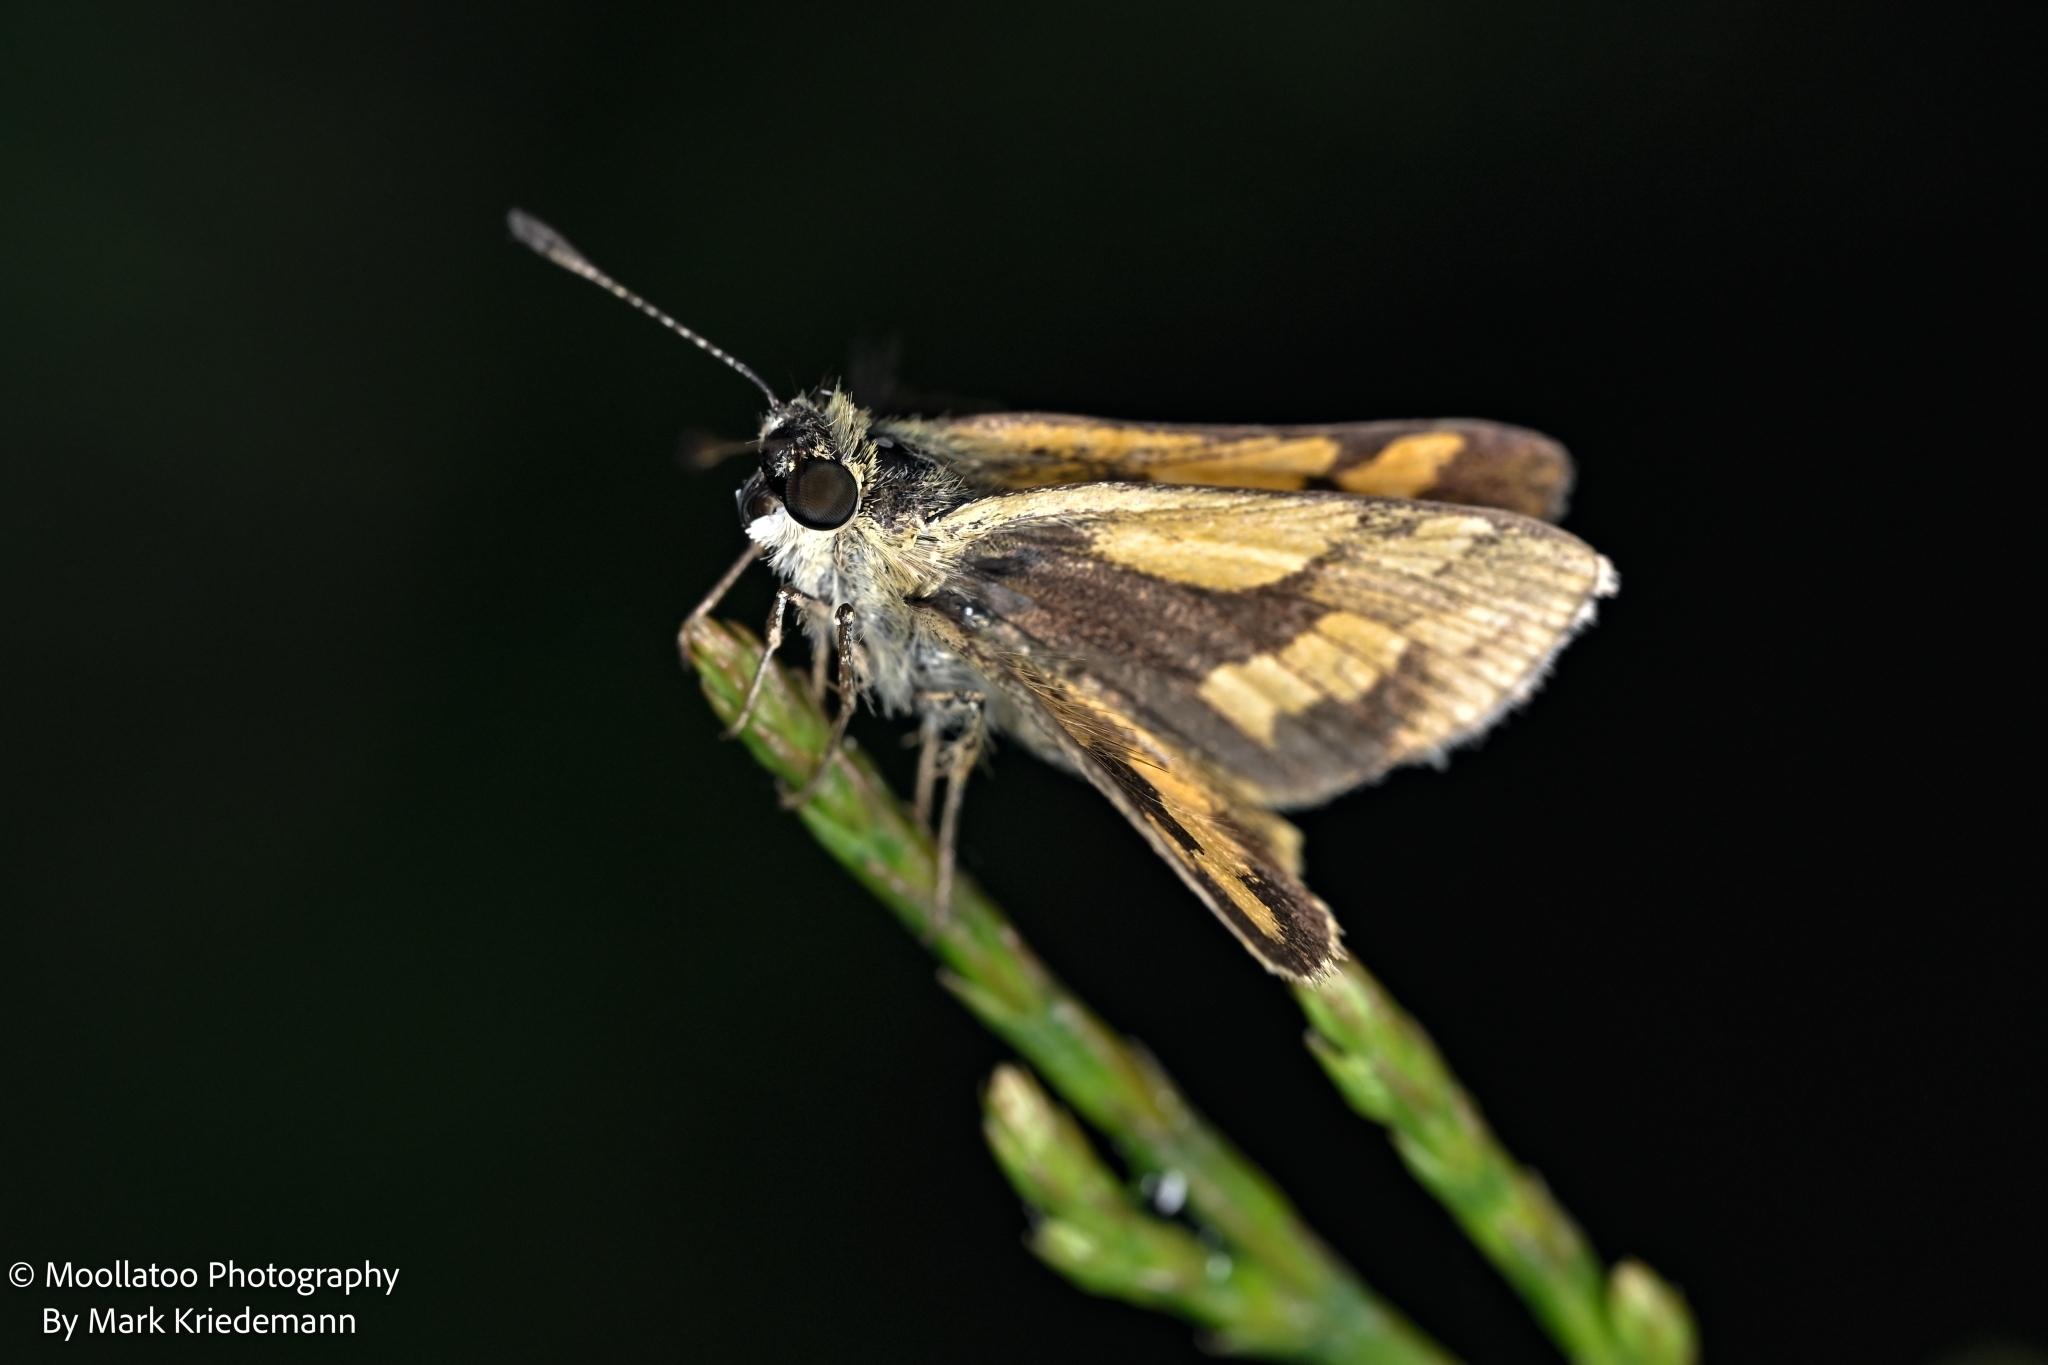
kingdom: Animalia
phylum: Arthropoda
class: Insecta
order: Lepidoptera
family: Hesperiidae
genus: Ocybadistes
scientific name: Ocybadistes walkeri
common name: Yellow-banded dart
